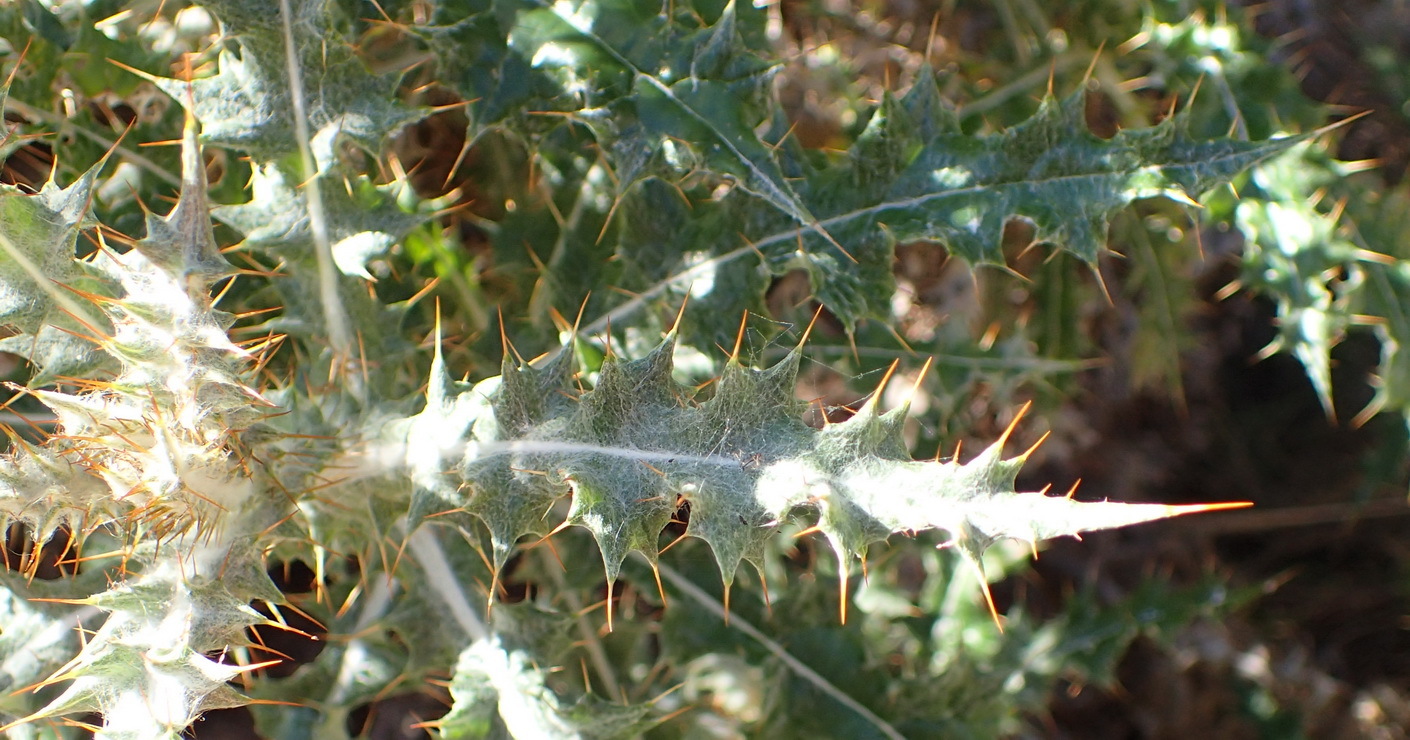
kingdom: Plantae
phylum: Tracheophyta
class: Magnoliopsida
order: Asterales
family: Asteraceae
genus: Berkheya
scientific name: Berkheya heterophylla
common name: Prickly gousblom
